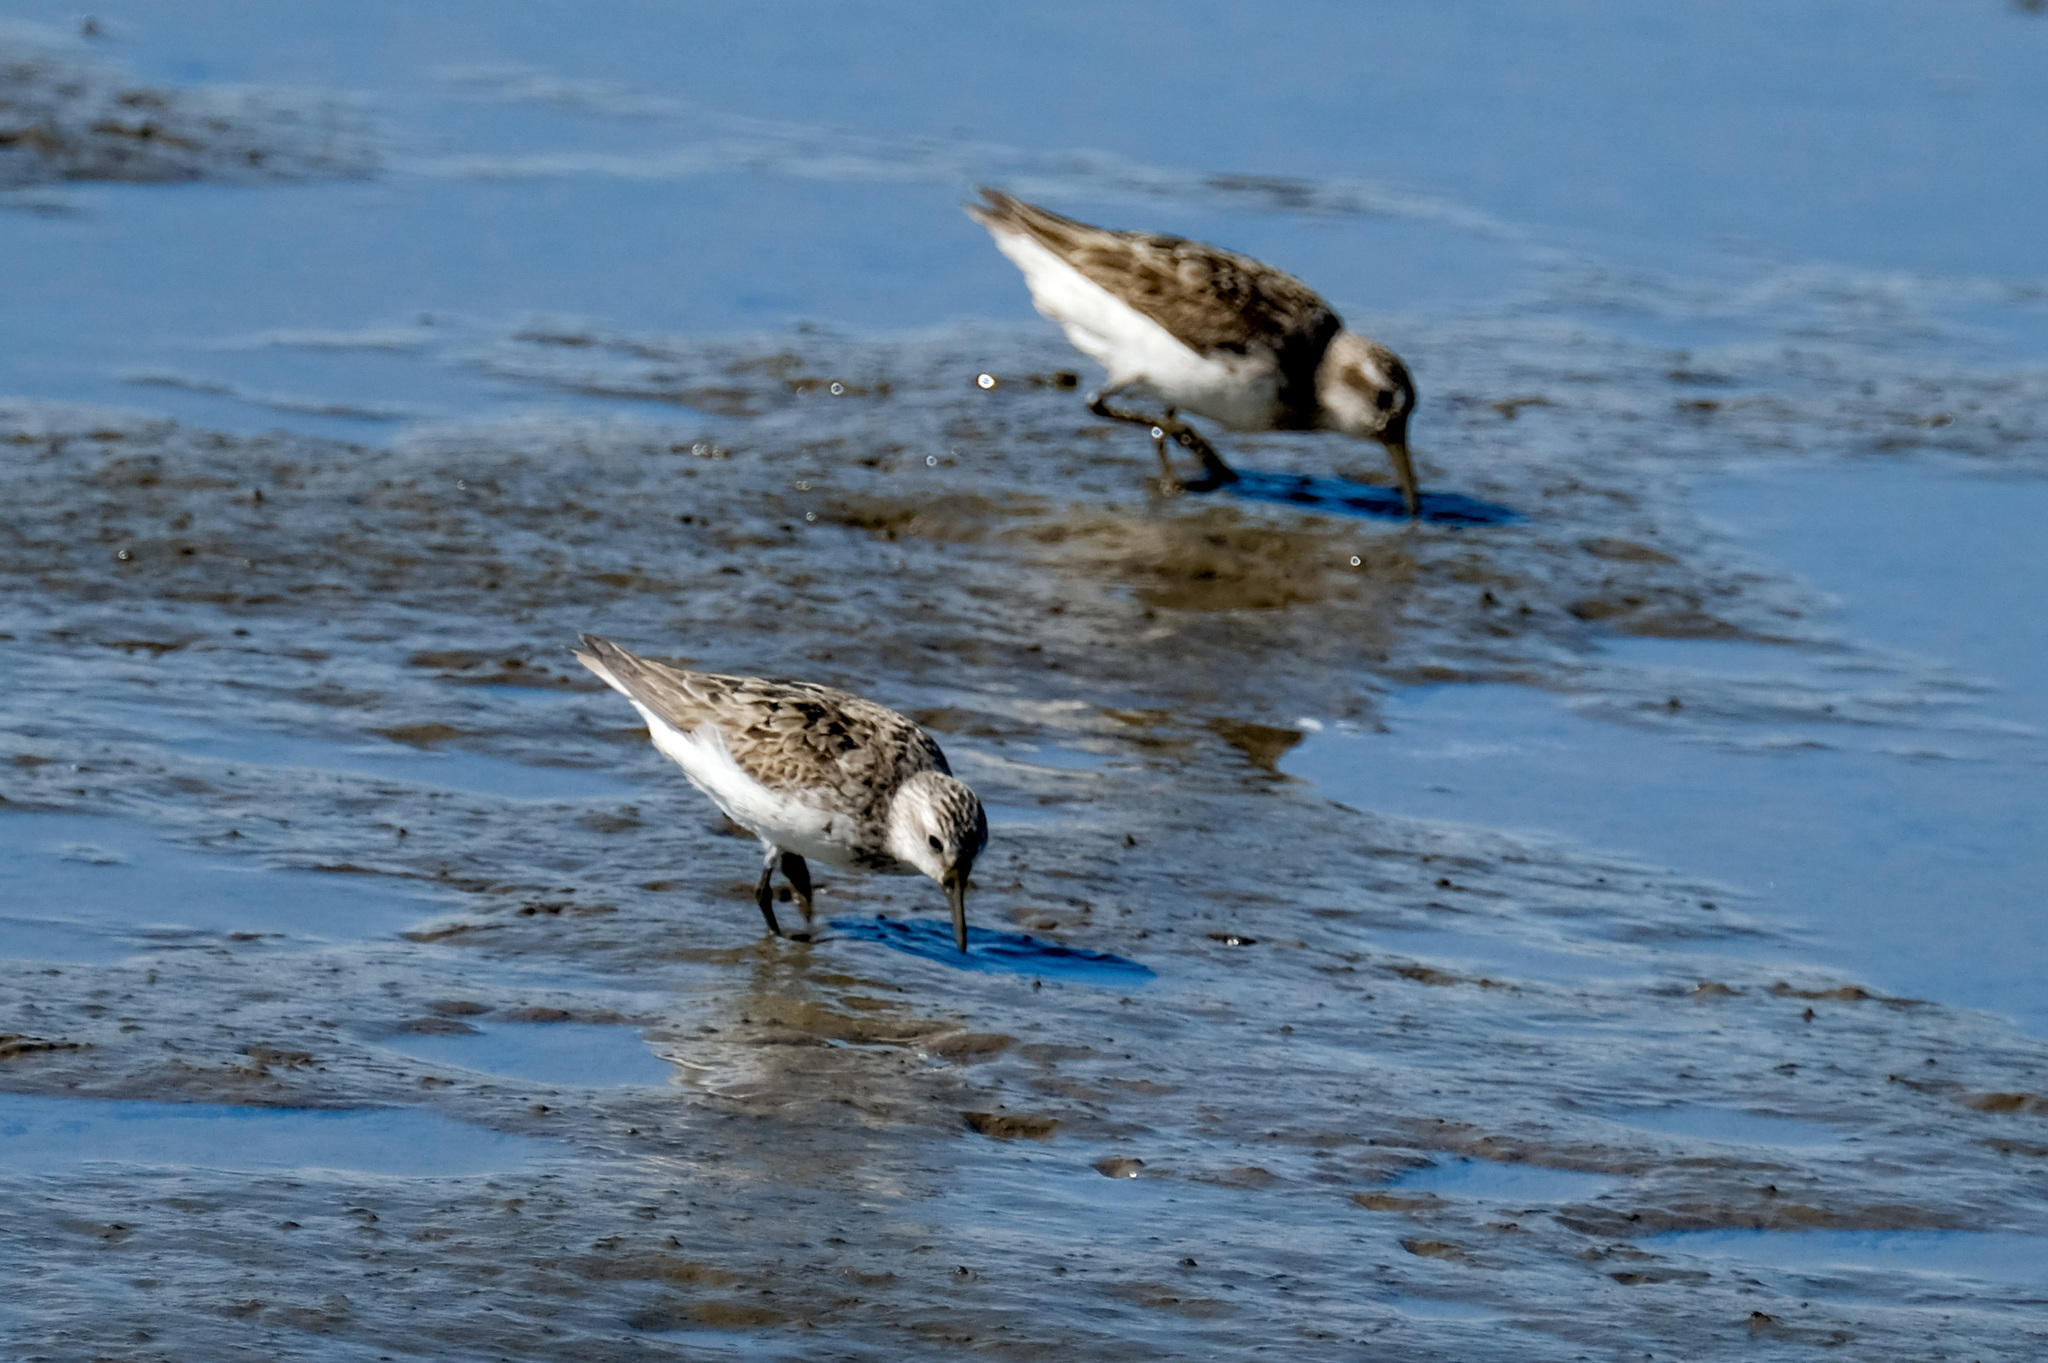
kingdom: Animalia
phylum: Chordata
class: Aves
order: Charadriiformes
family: Scolopacidae
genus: Calidris
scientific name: Calidris pusilla
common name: Semipalmated sandpiper
